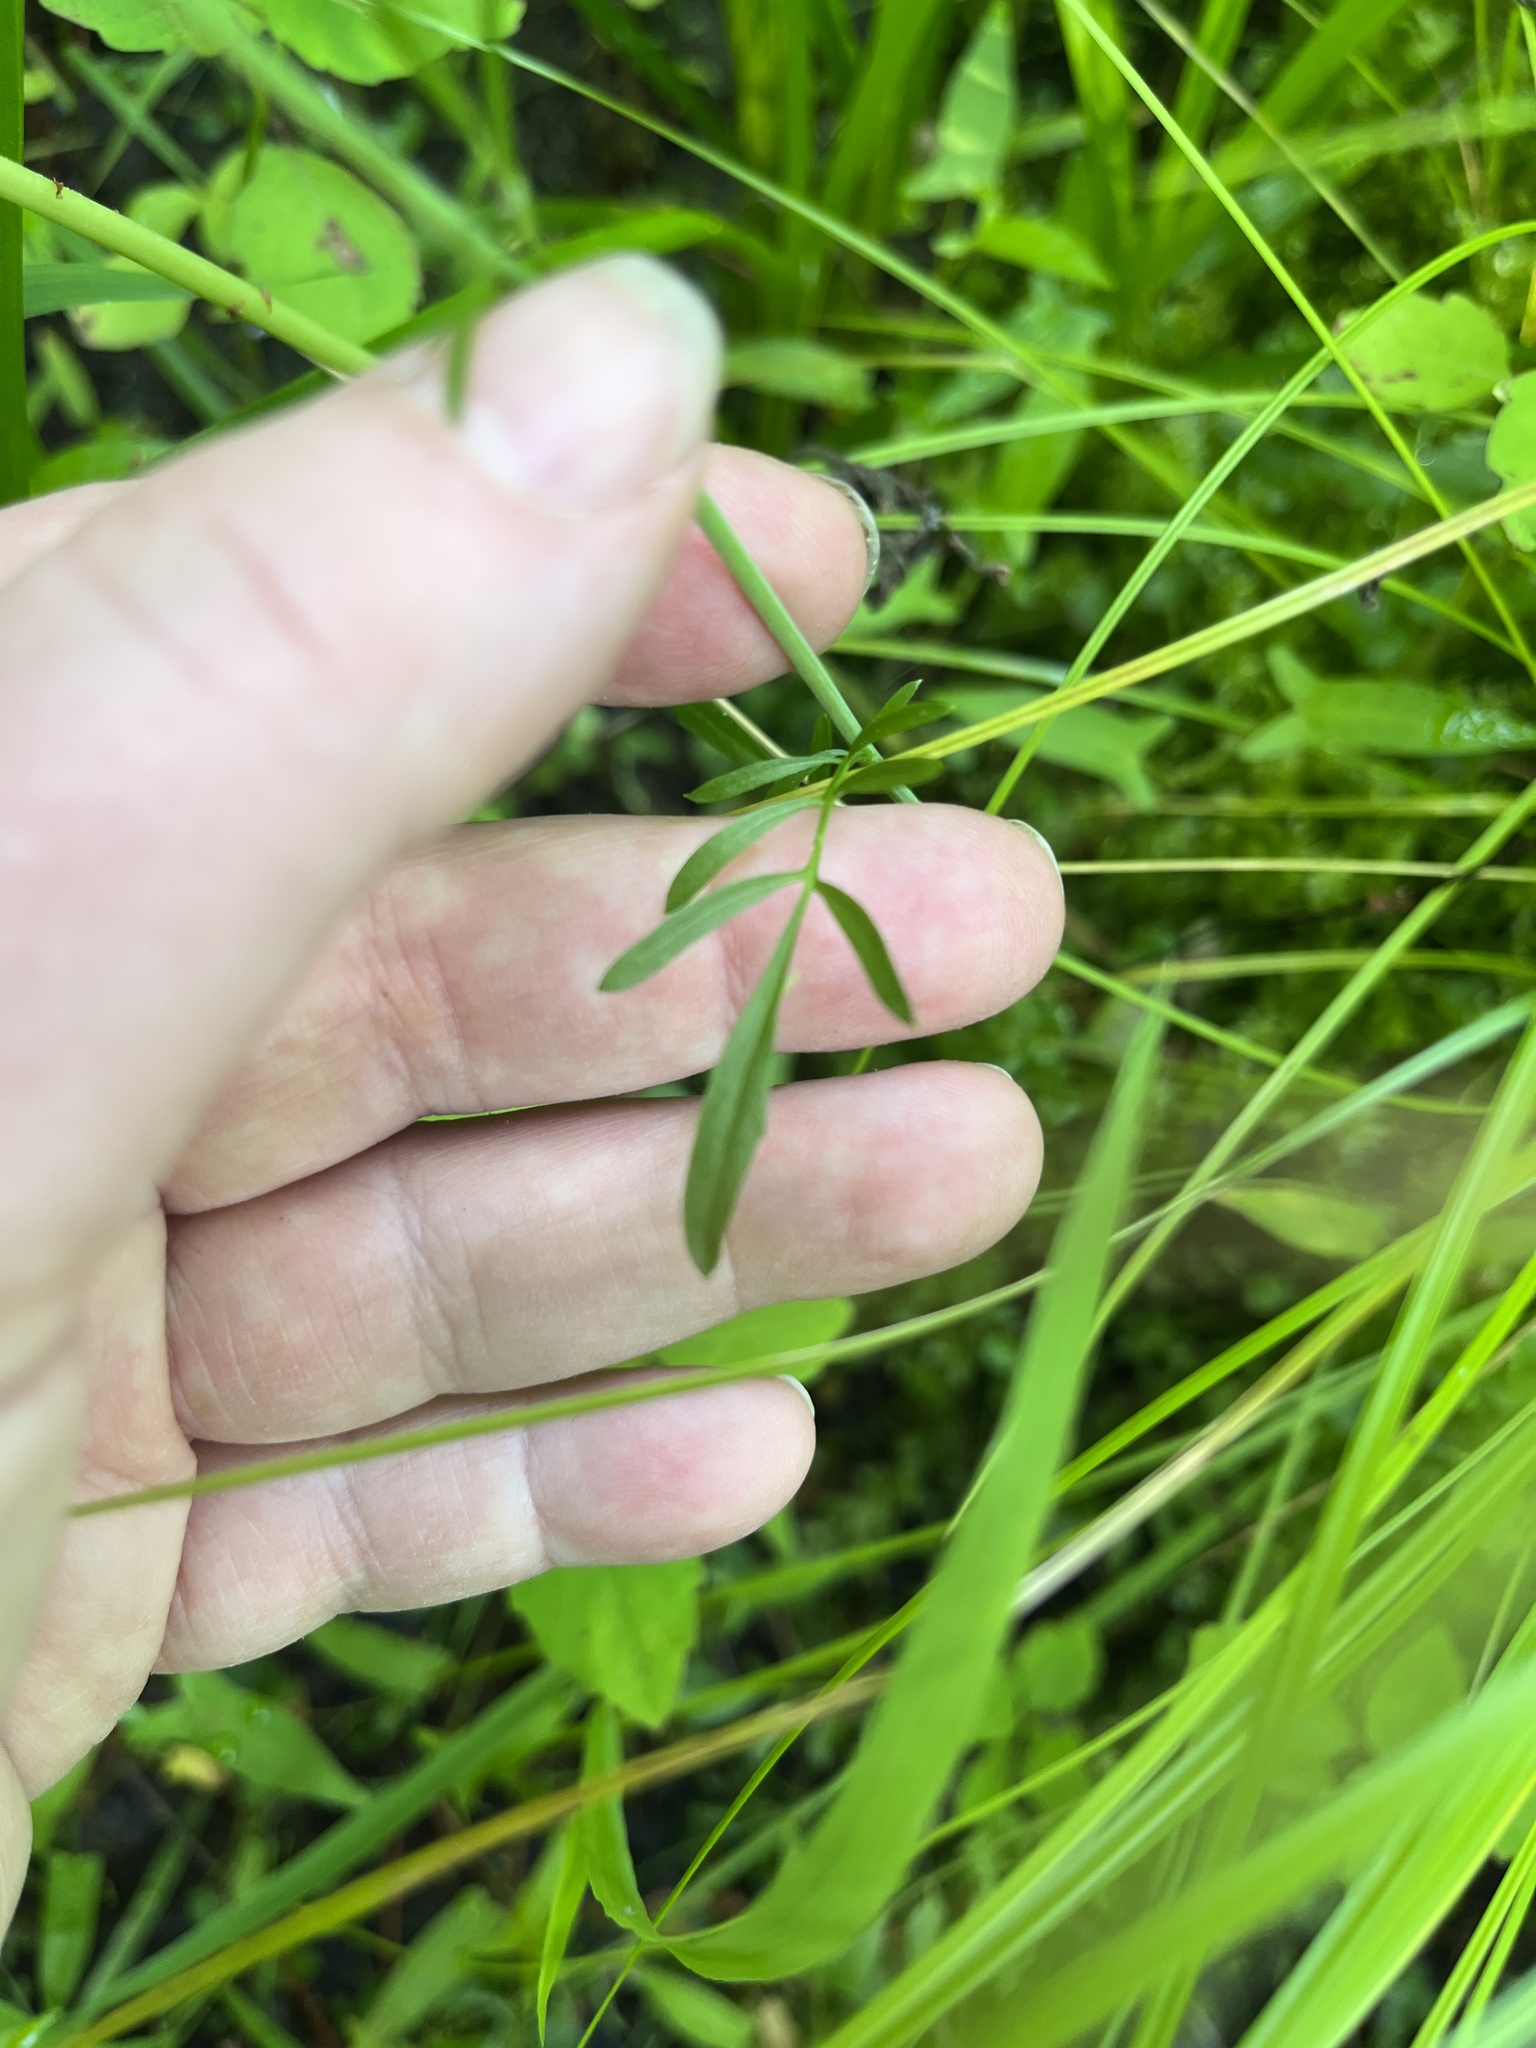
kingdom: Plantae
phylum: Tracheophyta
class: Magnoliopsida
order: Brassicales
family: Brassicaceae
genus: Cardamine
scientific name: Cardamine pratensis
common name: Cuckoo flower
